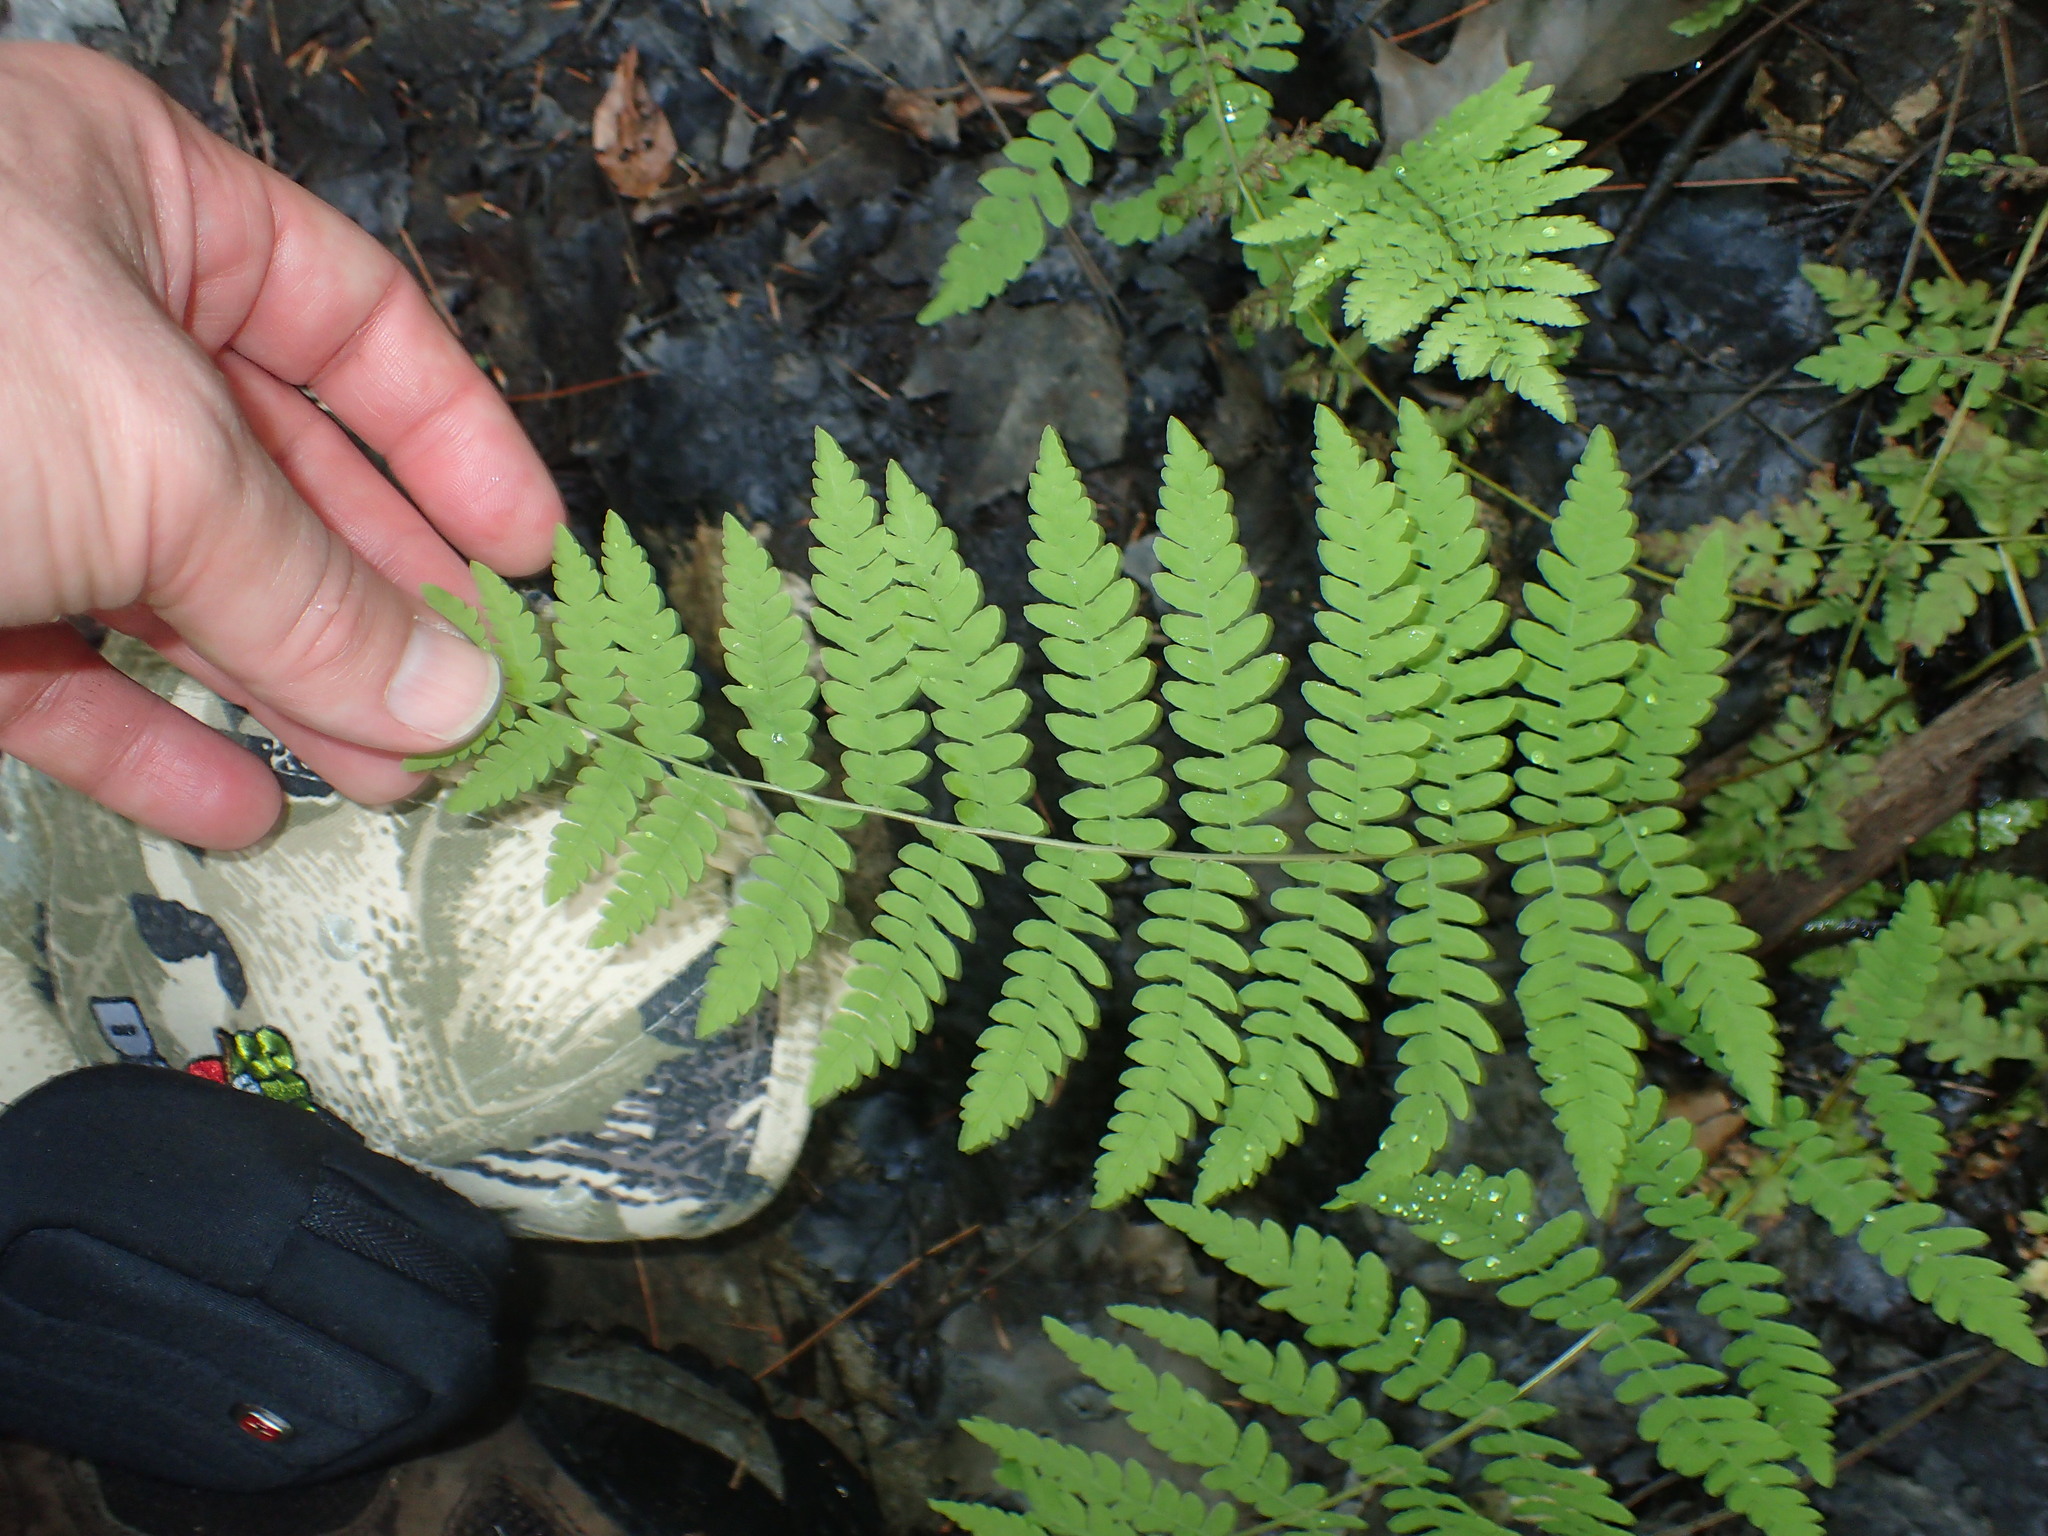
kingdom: Plantae
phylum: Tracheophyta
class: Polypodiopsida
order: Polypodiales
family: Thelypteridaceae
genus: Thelypteris
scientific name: Thelypteris palustris
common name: Marsh fern
